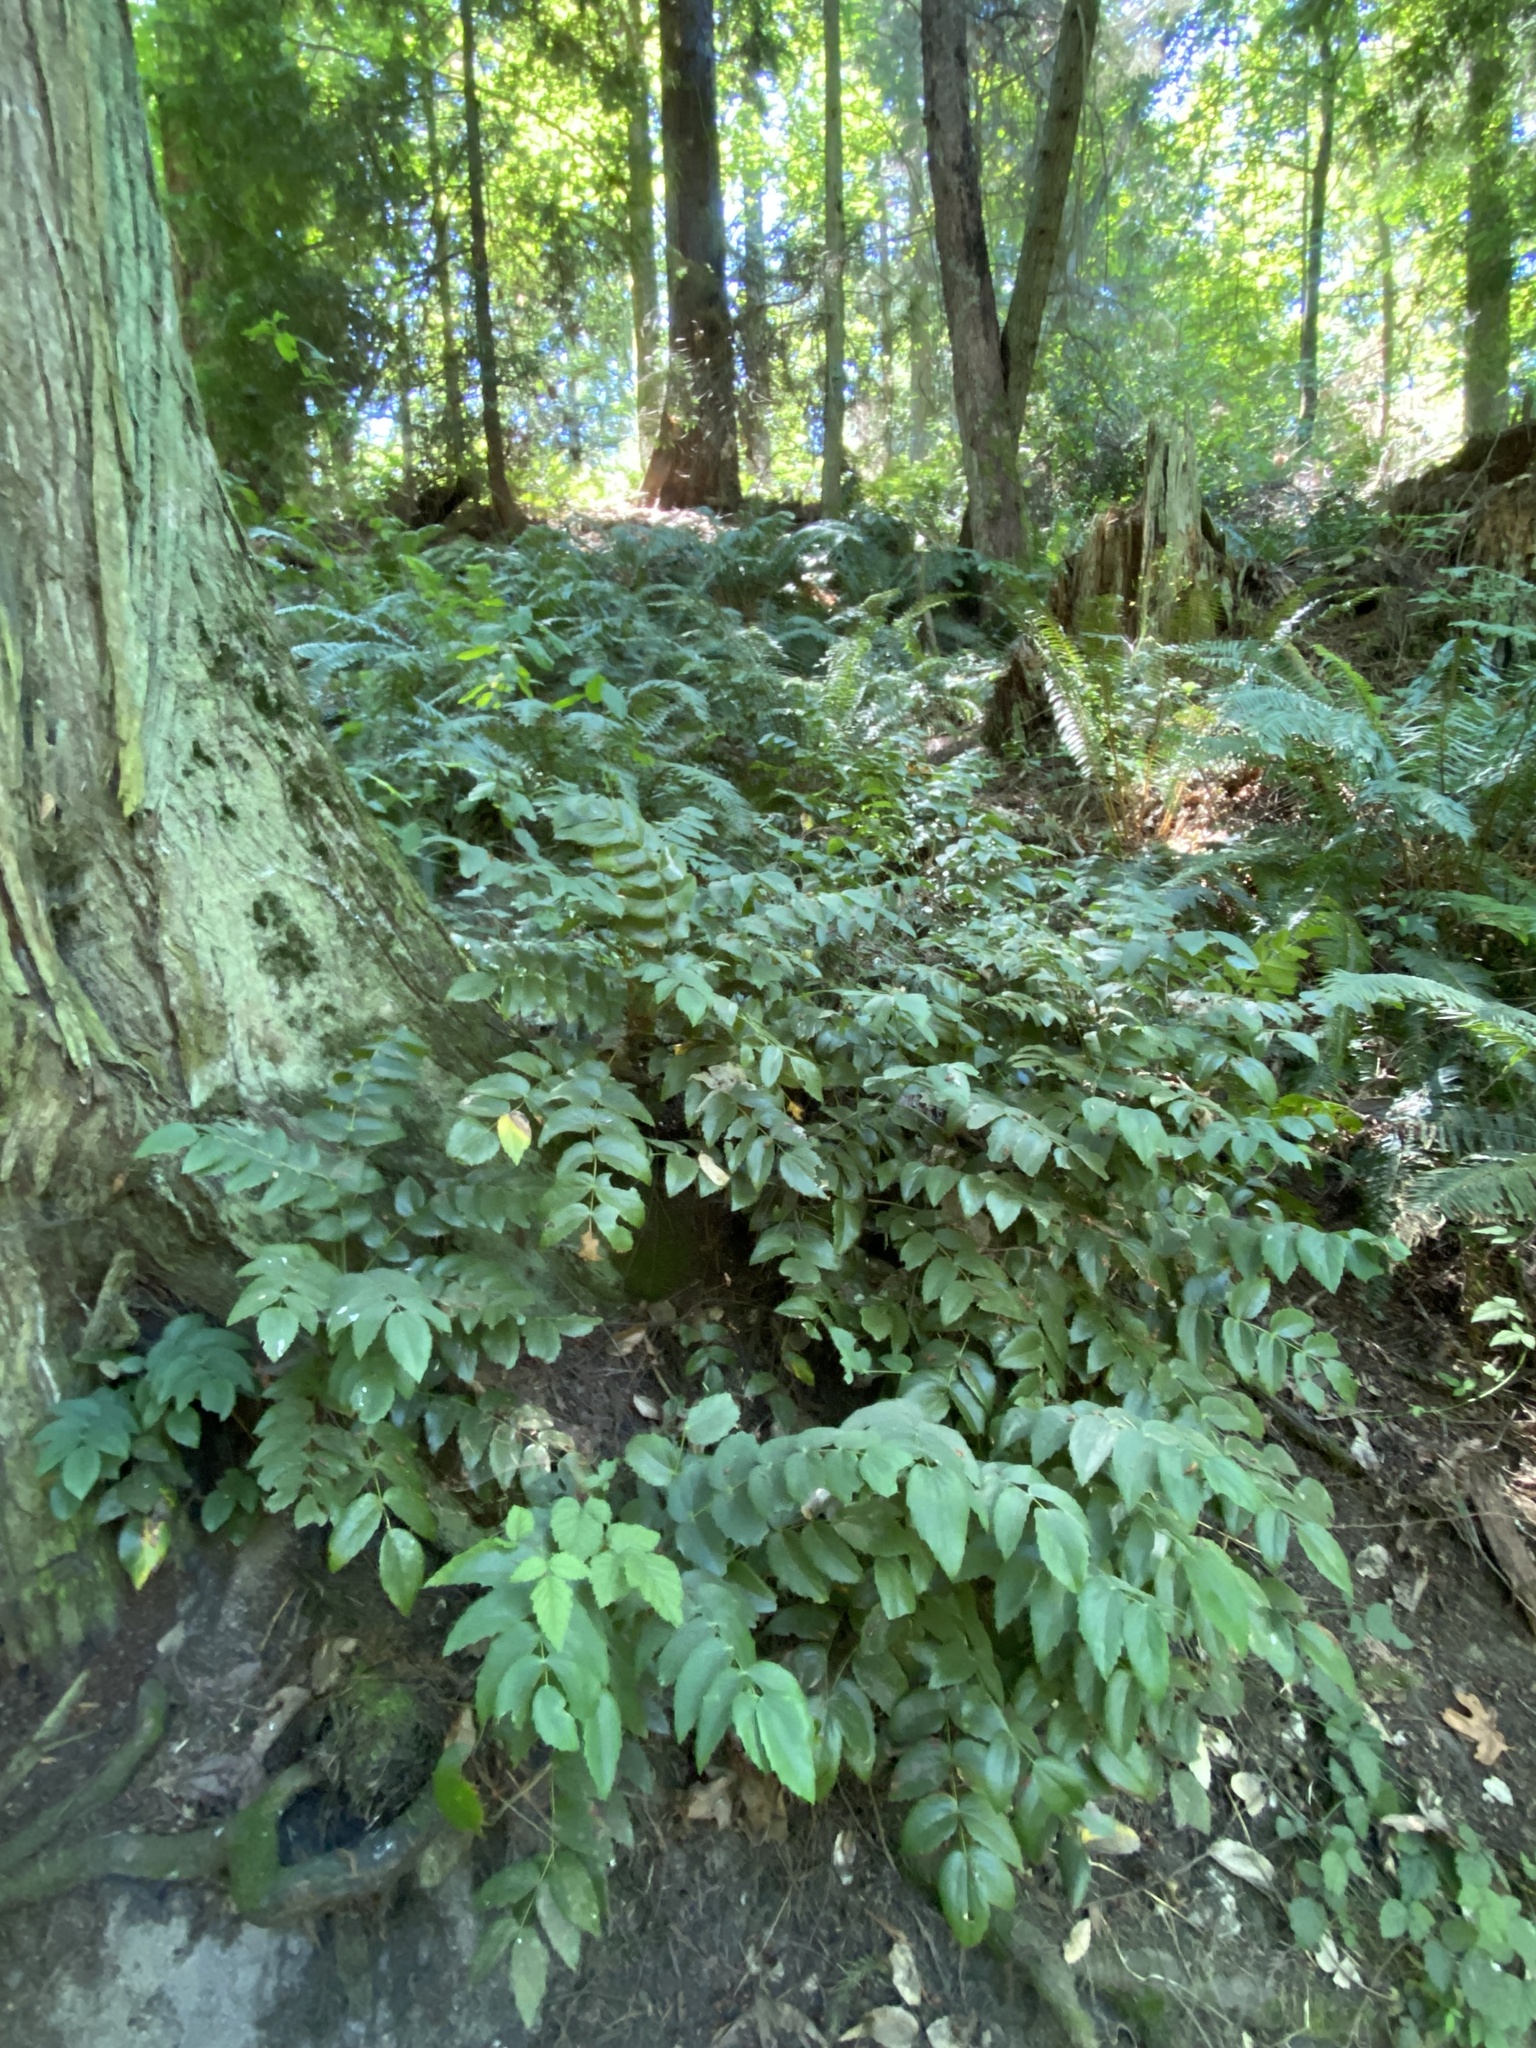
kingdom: Plantae
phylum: Tracheophyta
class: Magnoliopsida
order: Ranunculales
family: Berberidaceae
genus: Mahonia
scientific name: Mahonia nervosa
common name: Cascade oregon-grape
